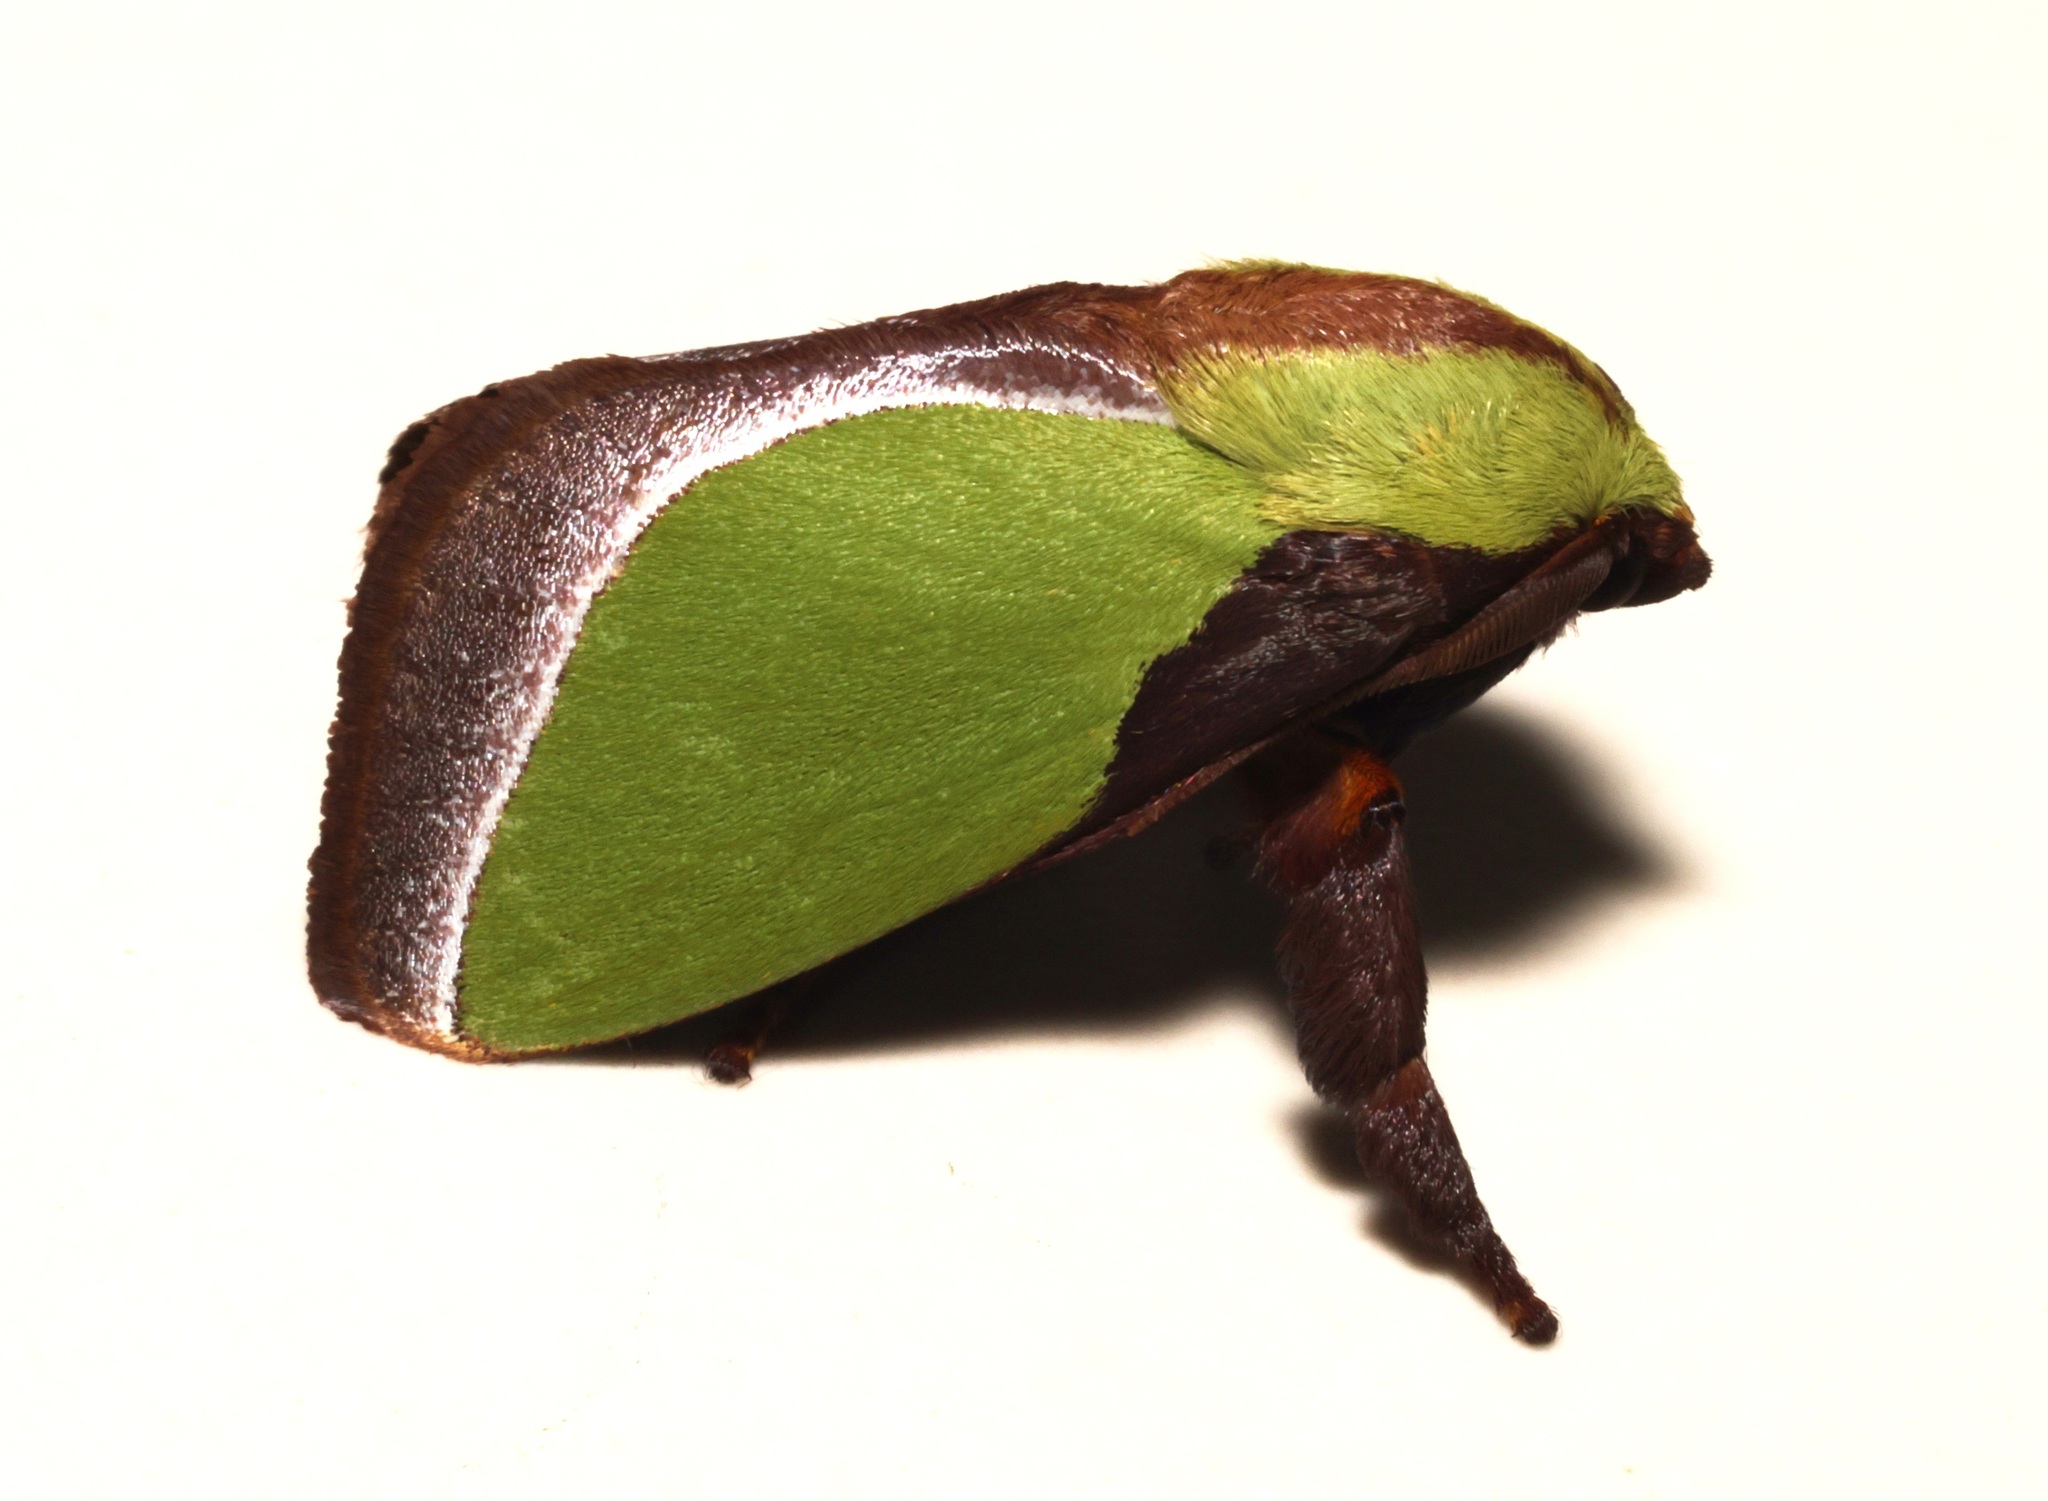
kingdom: Animalia
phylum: Arthropoda
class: Insecta
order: Lepidoptera
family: Limacodidae
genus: Melinaria
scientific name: Melinaria campagnei
